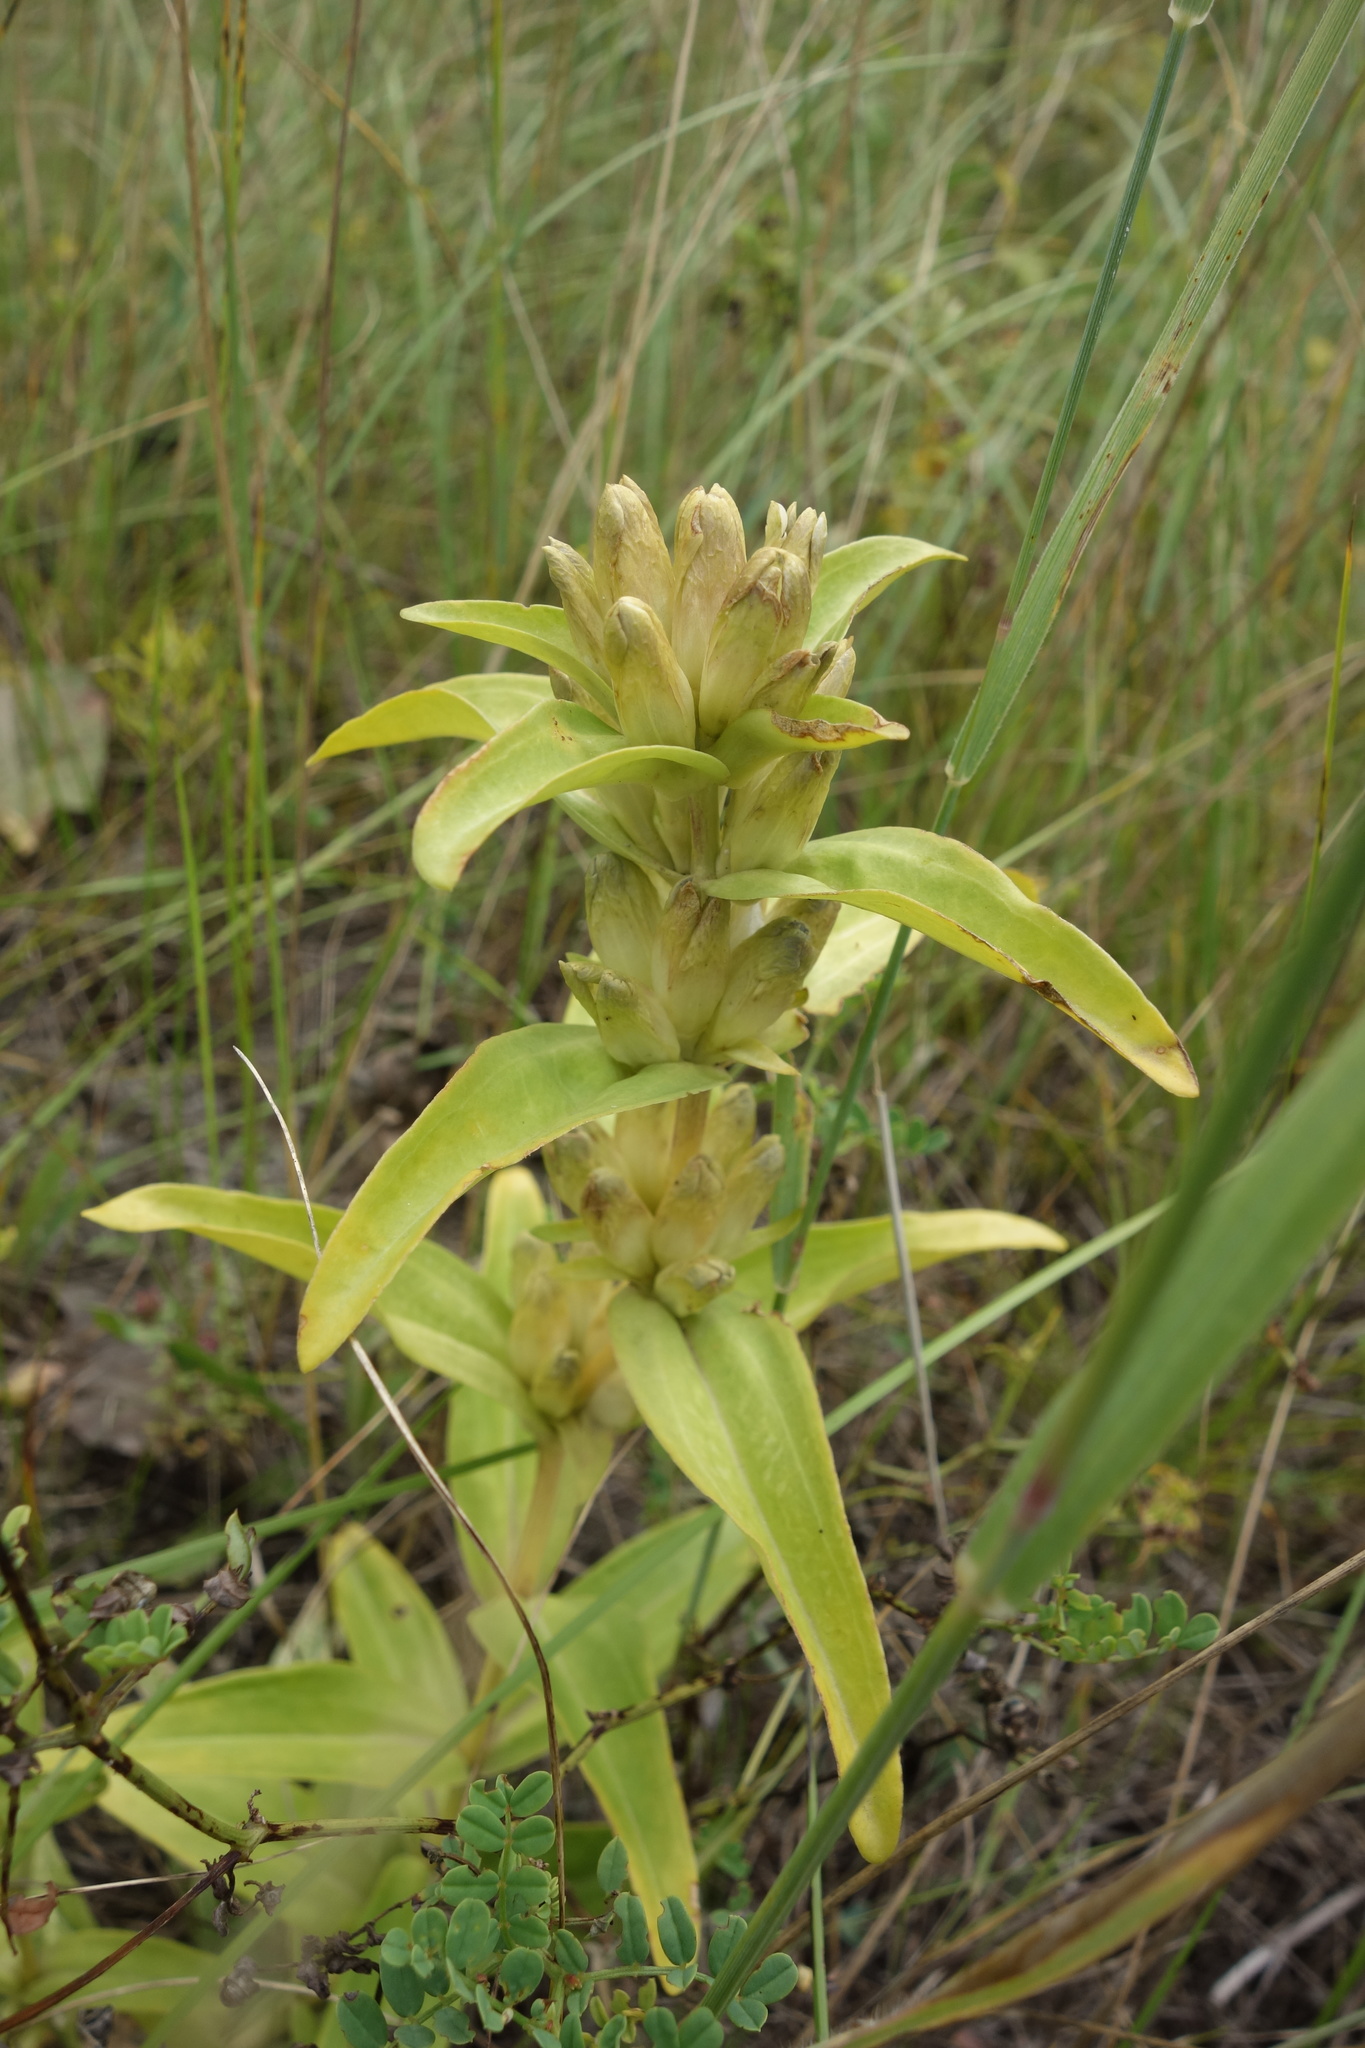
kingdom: Plantae
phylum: Tracheophyta
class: Magnoliopsida
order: Gentianales
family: Gentianaceae
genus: Gentiana
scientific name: Gentiana cruciata
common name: Cross gentian
